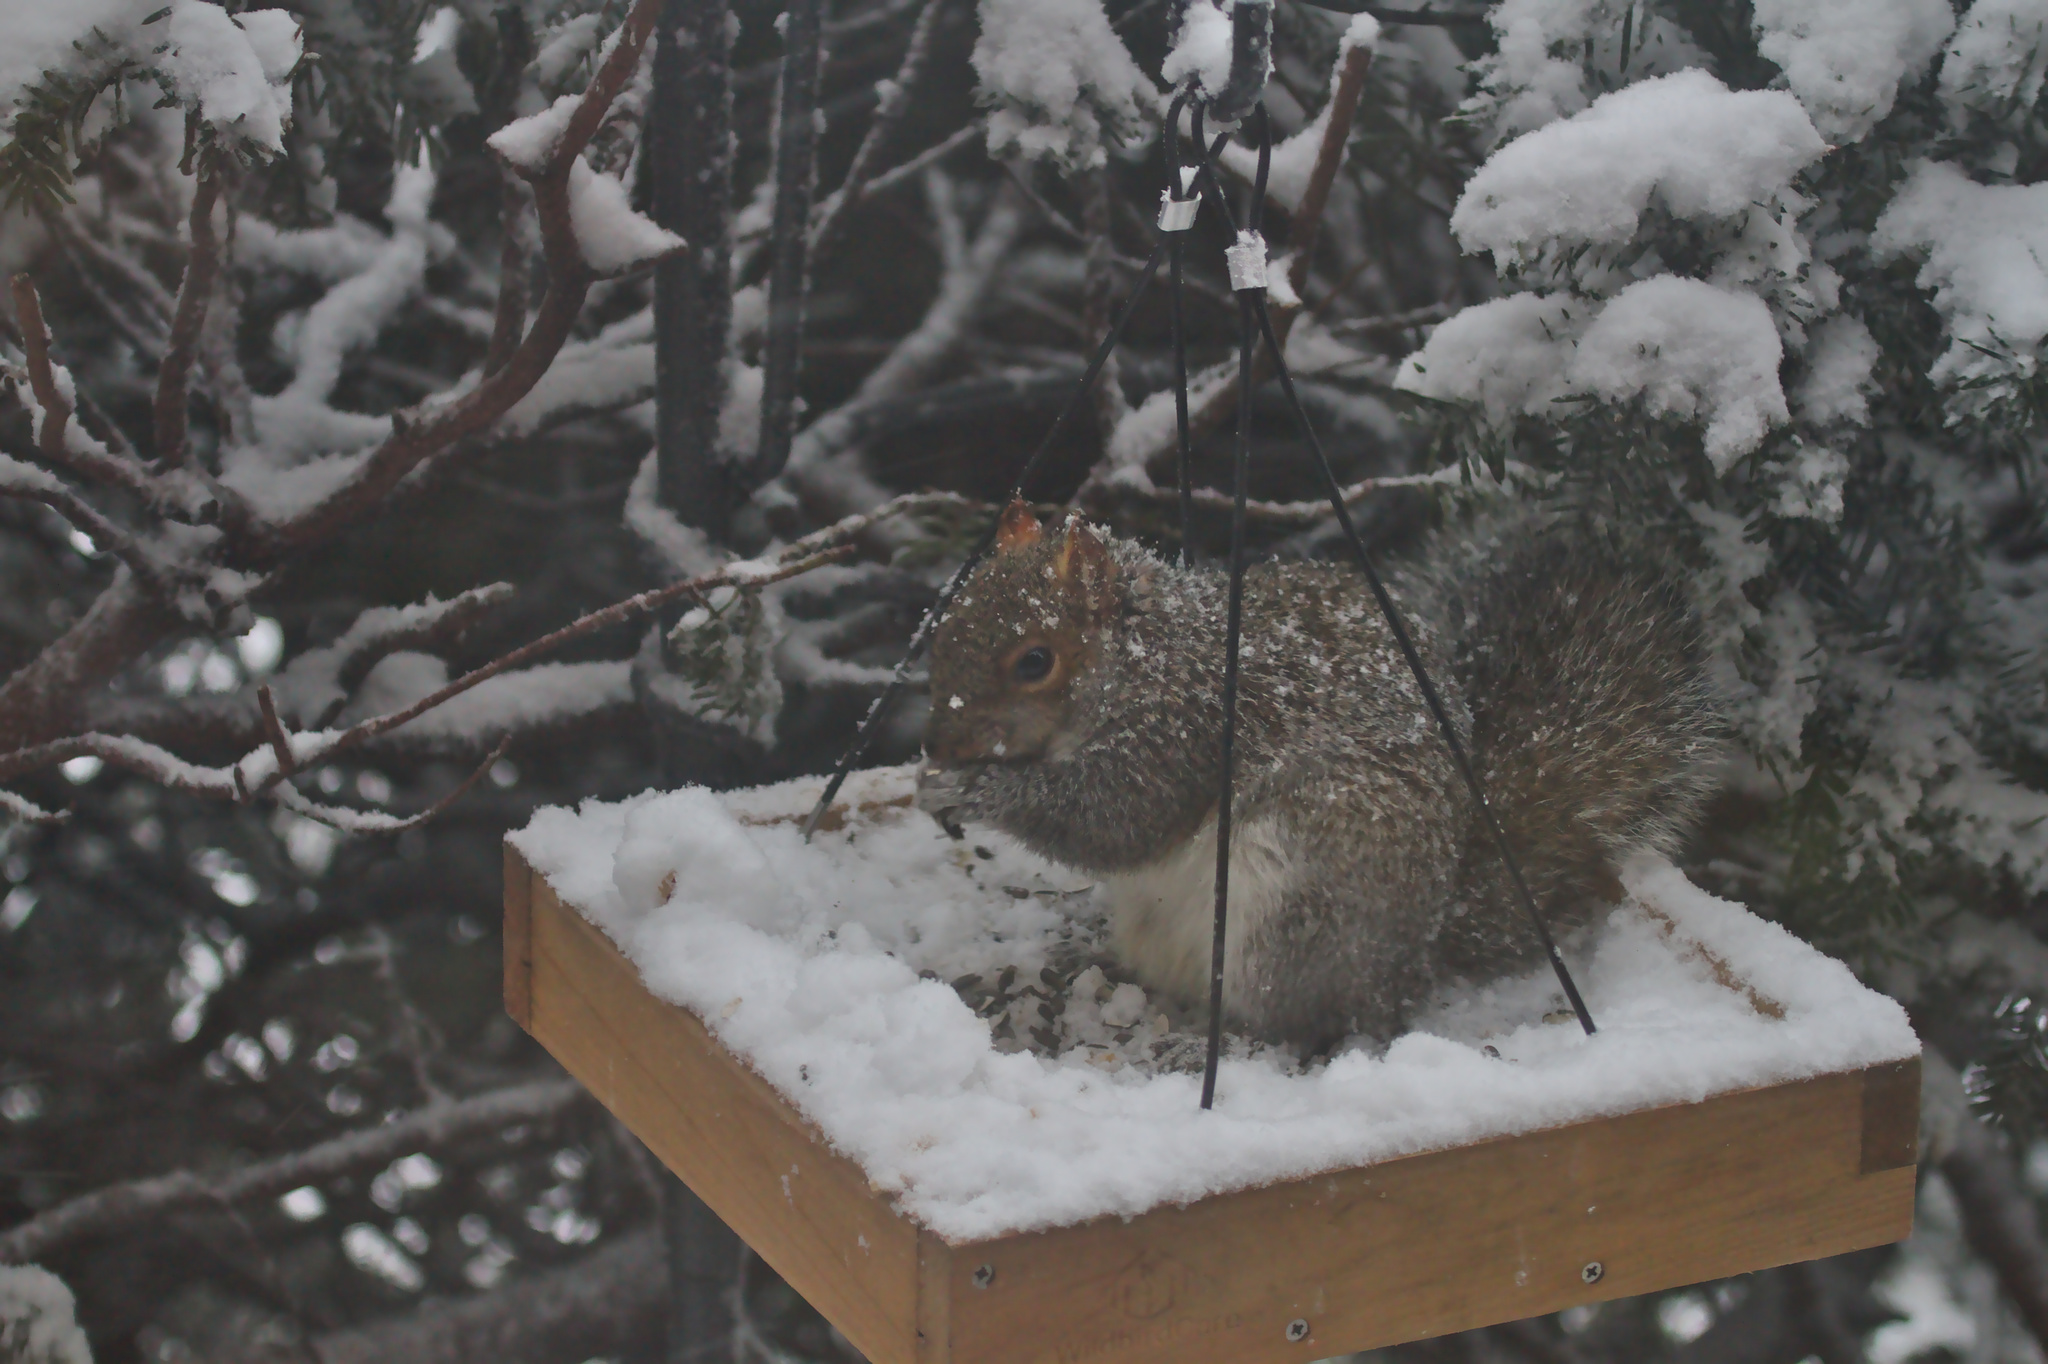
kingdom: Animalia
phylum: Chordata
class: Mammalia
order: Rodentia
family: Sciuridae
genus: Sciurus
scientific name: Sciurus carolinensis
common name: Eastern gray squirrel
